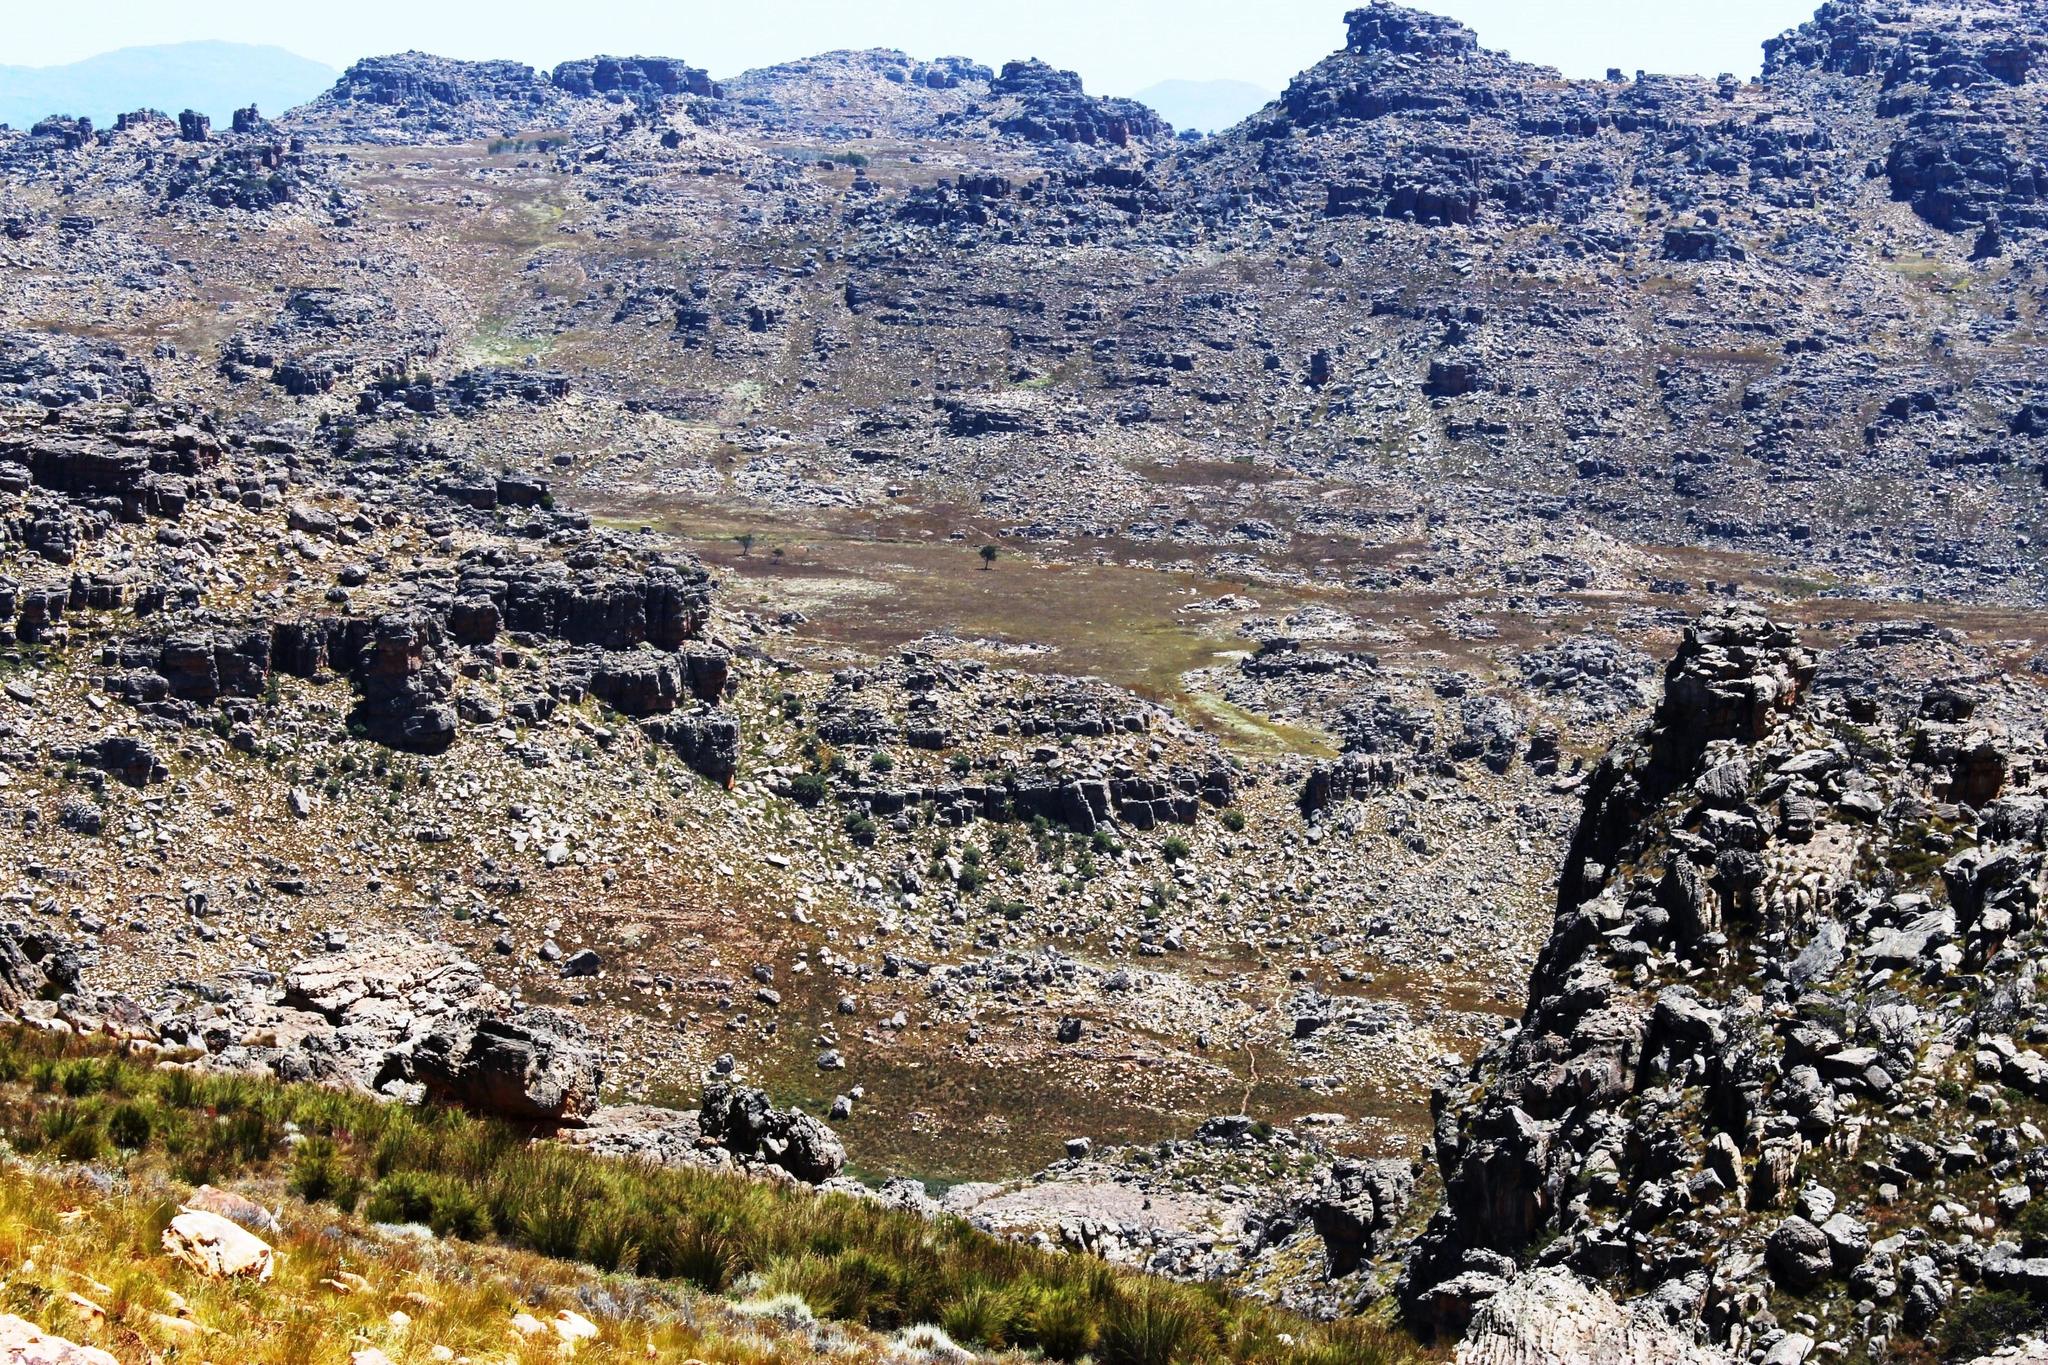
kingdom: Plantae
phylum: Tracheophyta
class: Pinopsida
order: Pinales
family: Cupressaceae
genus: Widdringtonia
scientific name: Widdringtonia nodiflora
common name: Cape cypress
